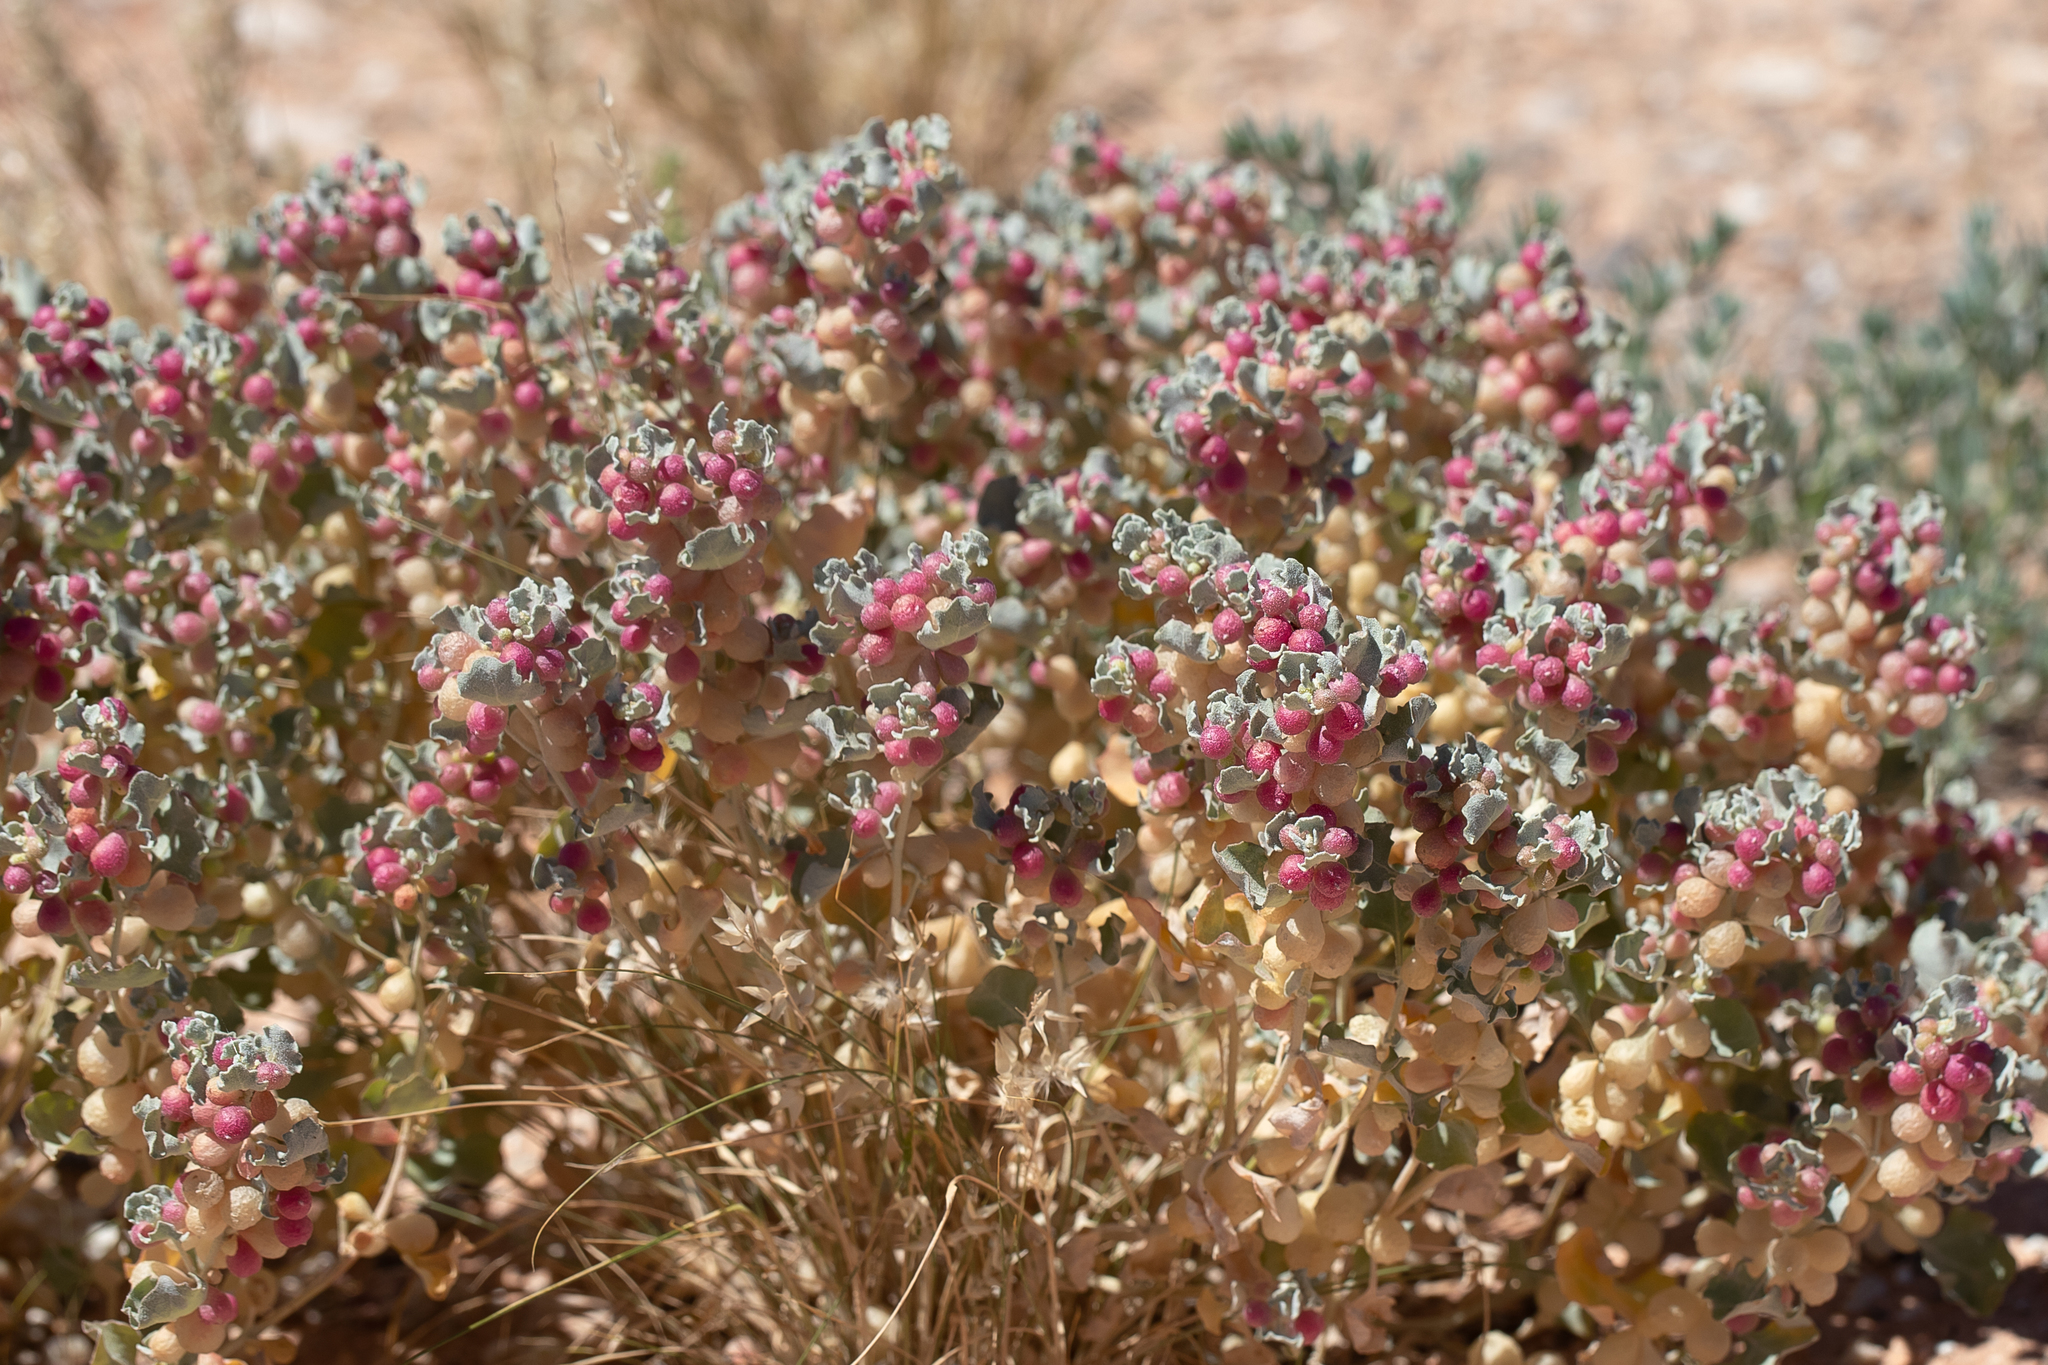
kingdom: Plantae
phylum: Tracheophyta
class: Magnoliopsida
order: Caryophyllales
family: Amaranthaceae
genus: Atriplex
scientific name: Atriplex holocarpa
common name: Pop saltbush
